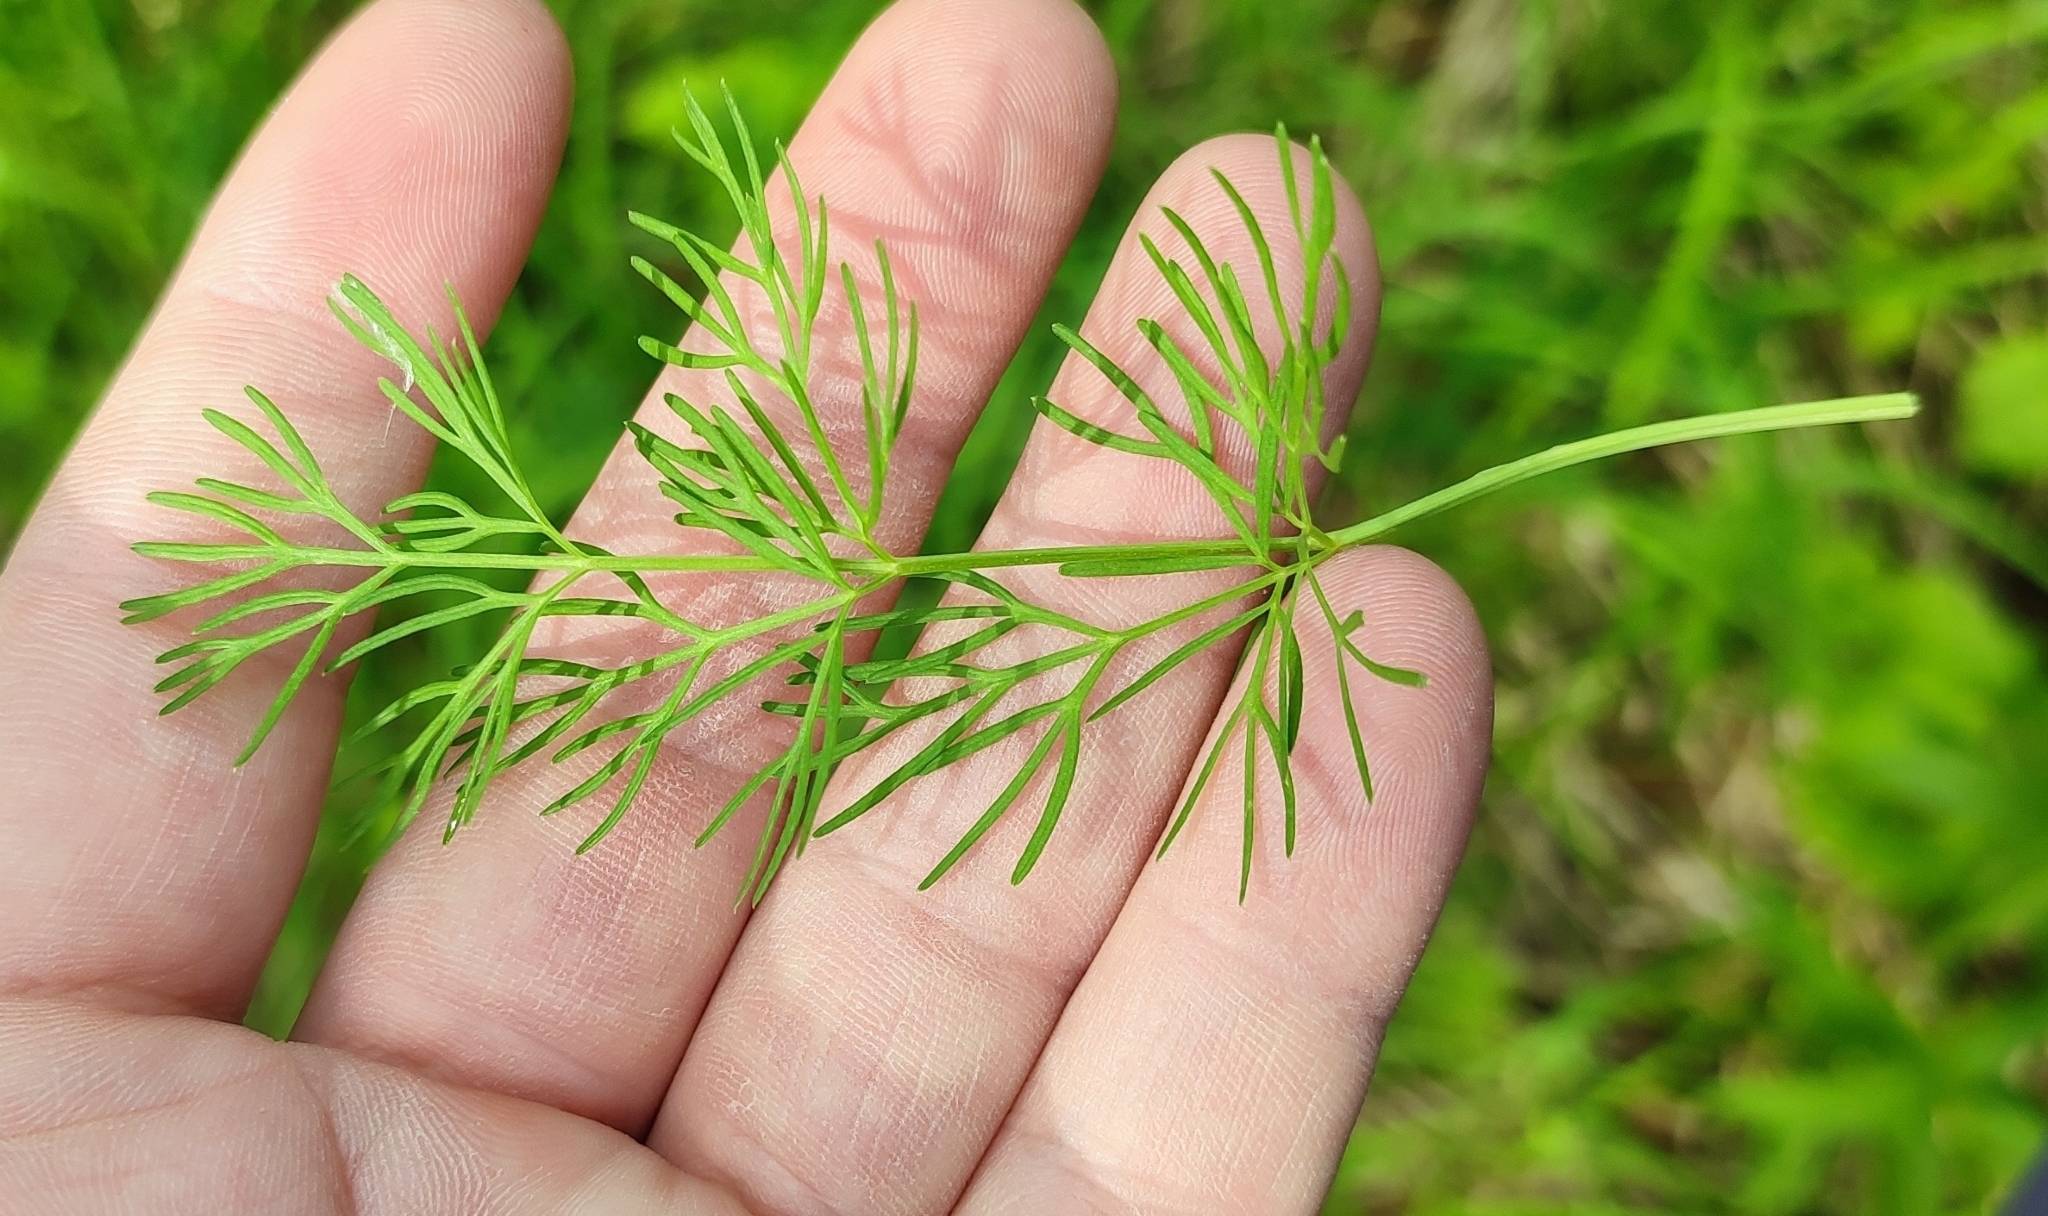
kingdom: Plantae
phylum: Tracheophyta
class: Magnoliopsida
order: Apiales
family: Apiaceae
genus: Kadenia
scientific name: Kadenia dubia
